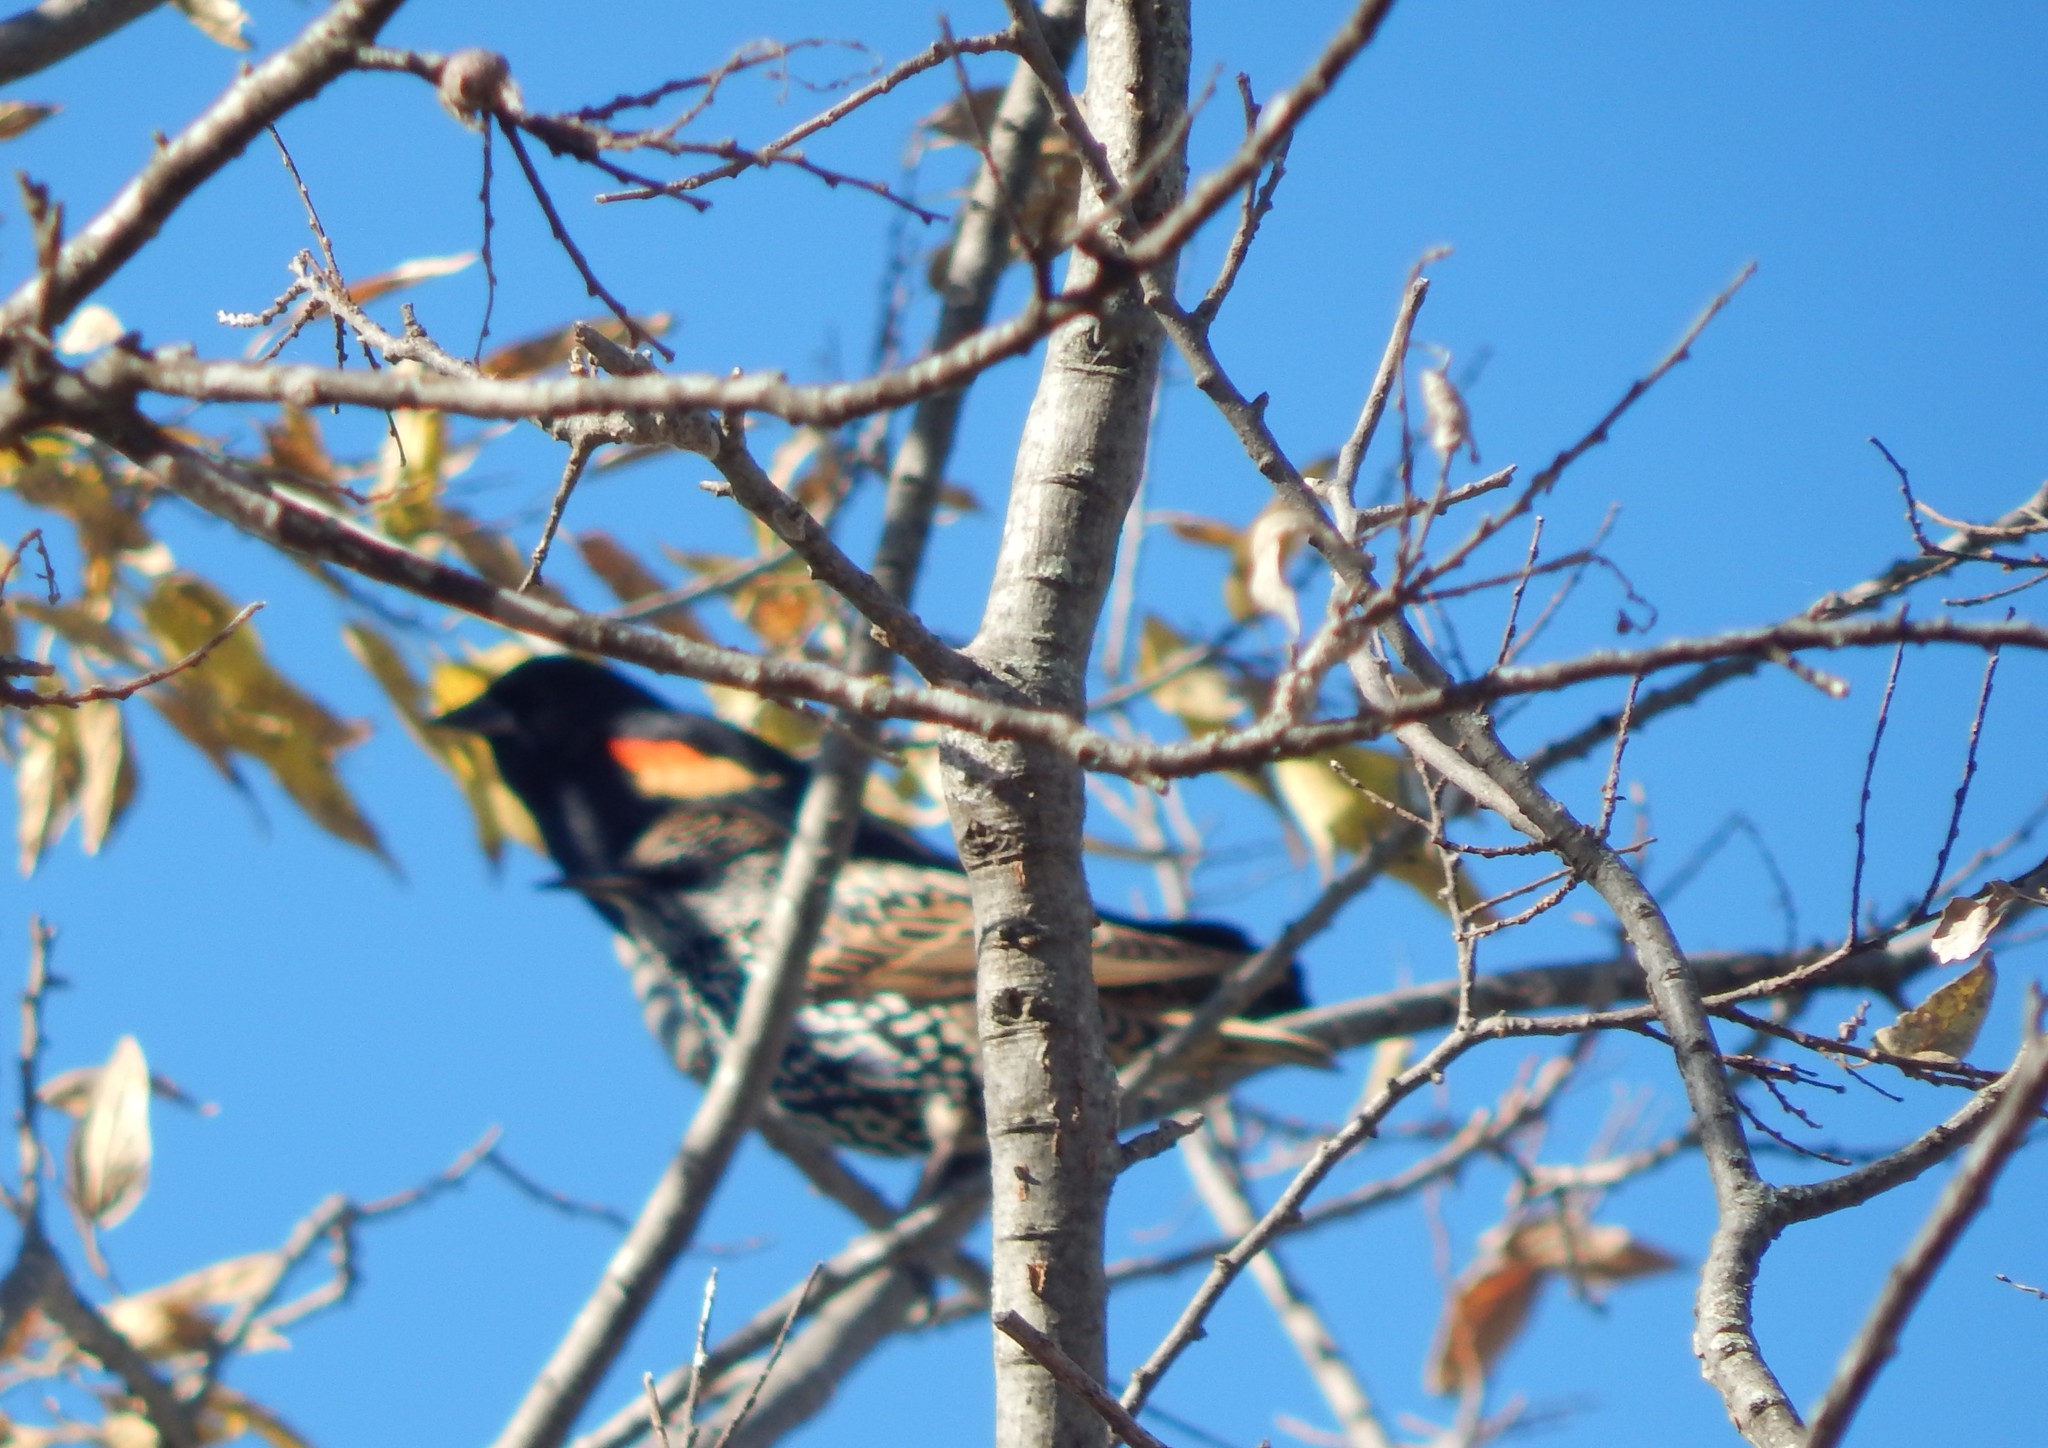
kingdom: Animalia
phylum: Chordata
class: Aves
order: Passeriformes
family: Icteridae
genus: Agelaius
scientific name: Agelaius phoeniceus
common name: Red-winged blackbird
